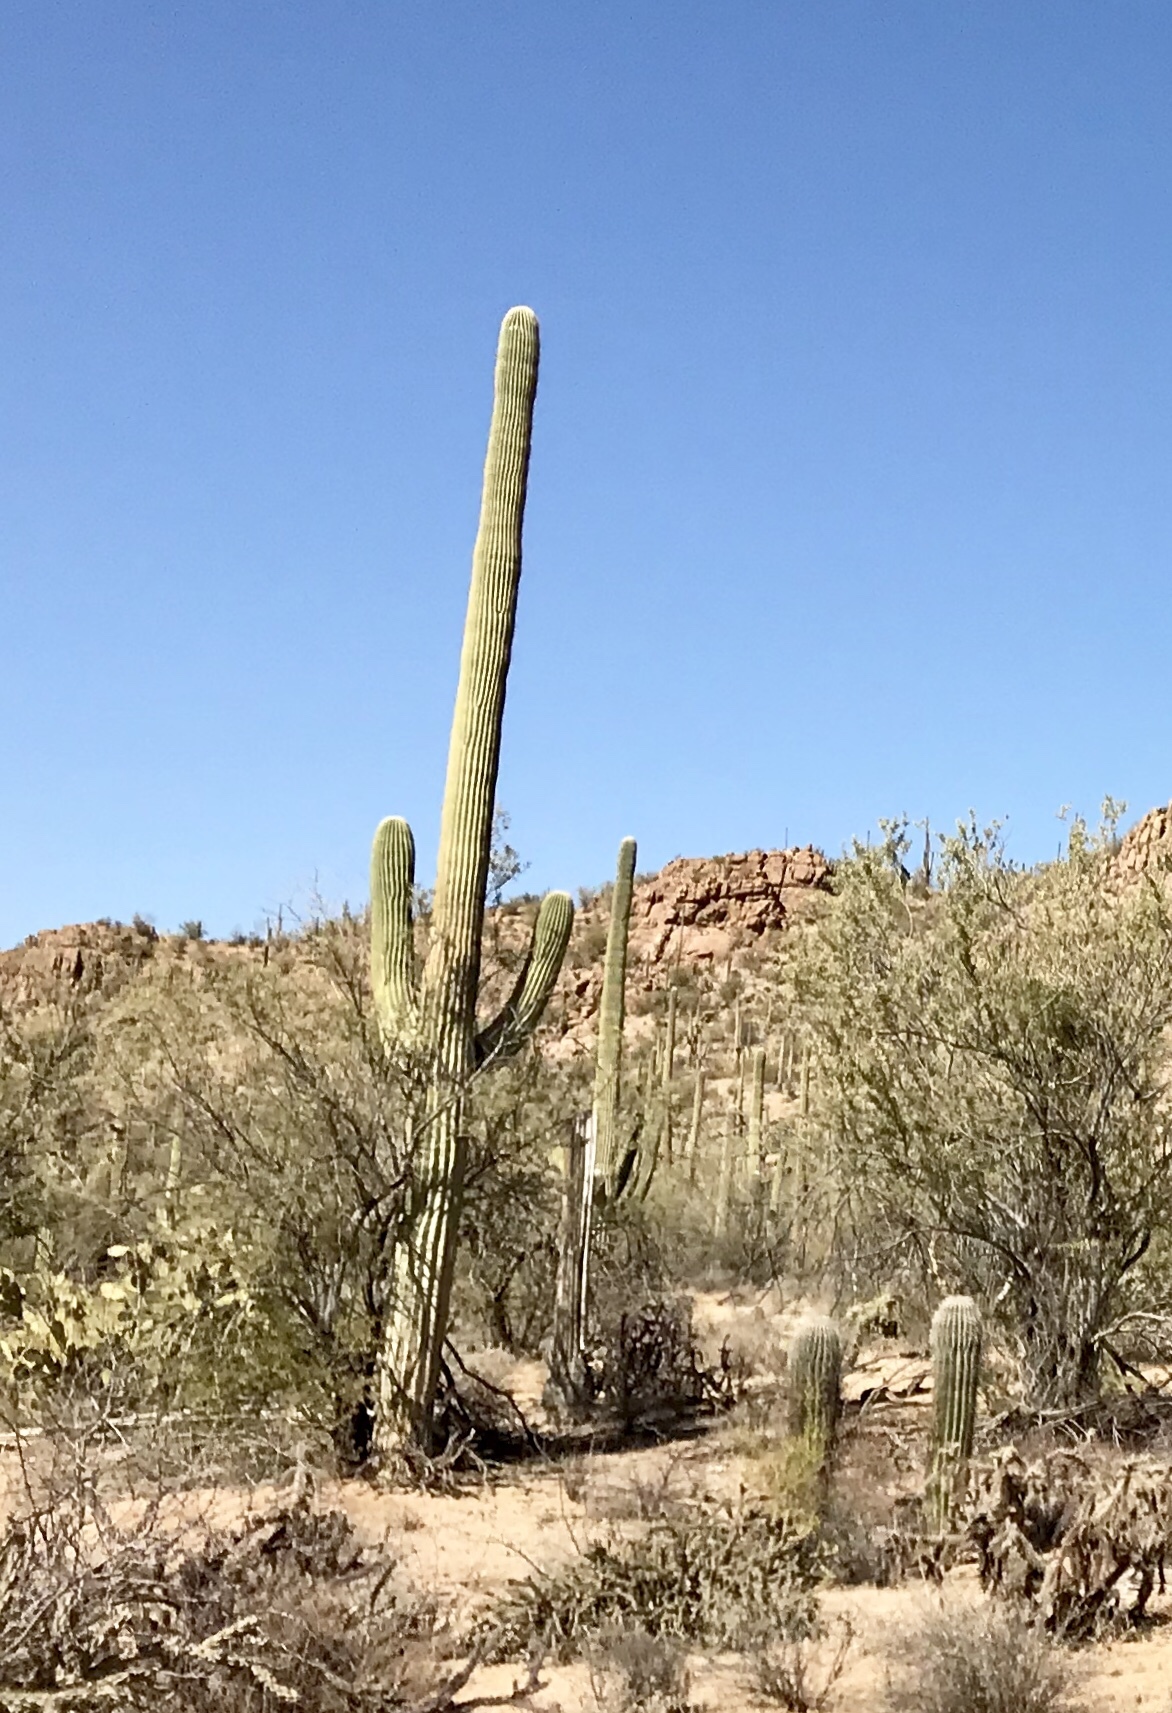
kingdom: Plantae
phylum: Tracheophyta
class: Magnoliopsida
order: Caryophyllales
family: Cactaceae
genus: Carnegiea
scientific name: Carnegiea gigantea
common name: Saguaro
